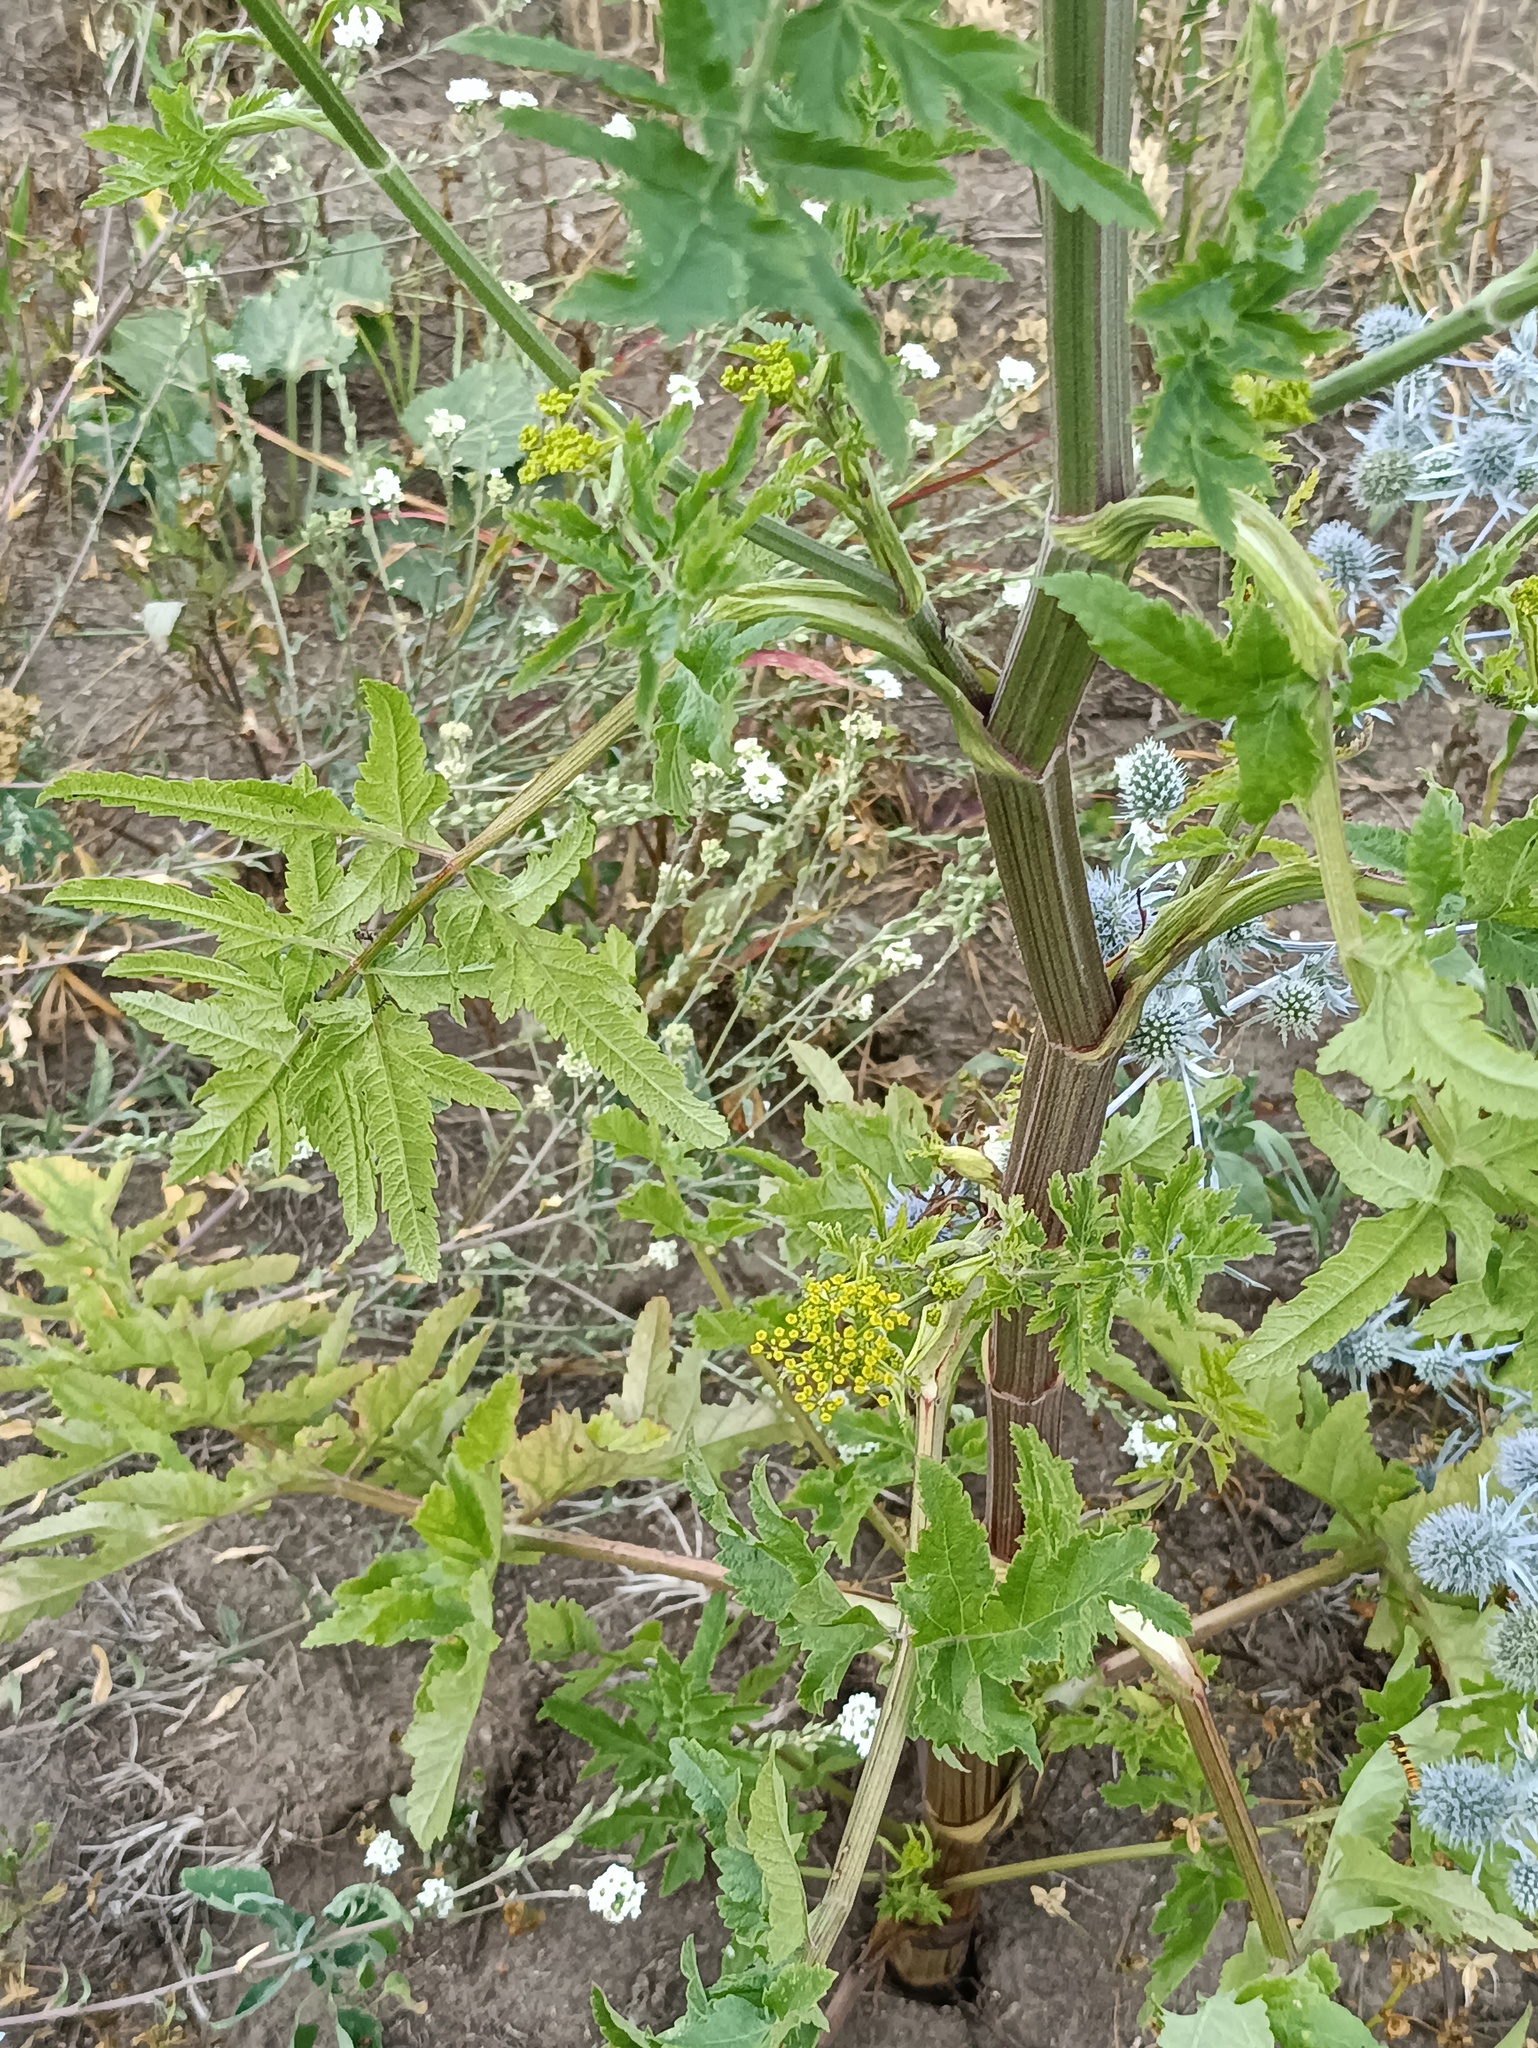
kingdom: Plantae
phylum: Tracheophyta
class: Magnoliopsida
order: Apiales
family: Apiaceae
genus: Pastinaca
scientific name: Pastinaca sativa
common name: Wild parsnip
